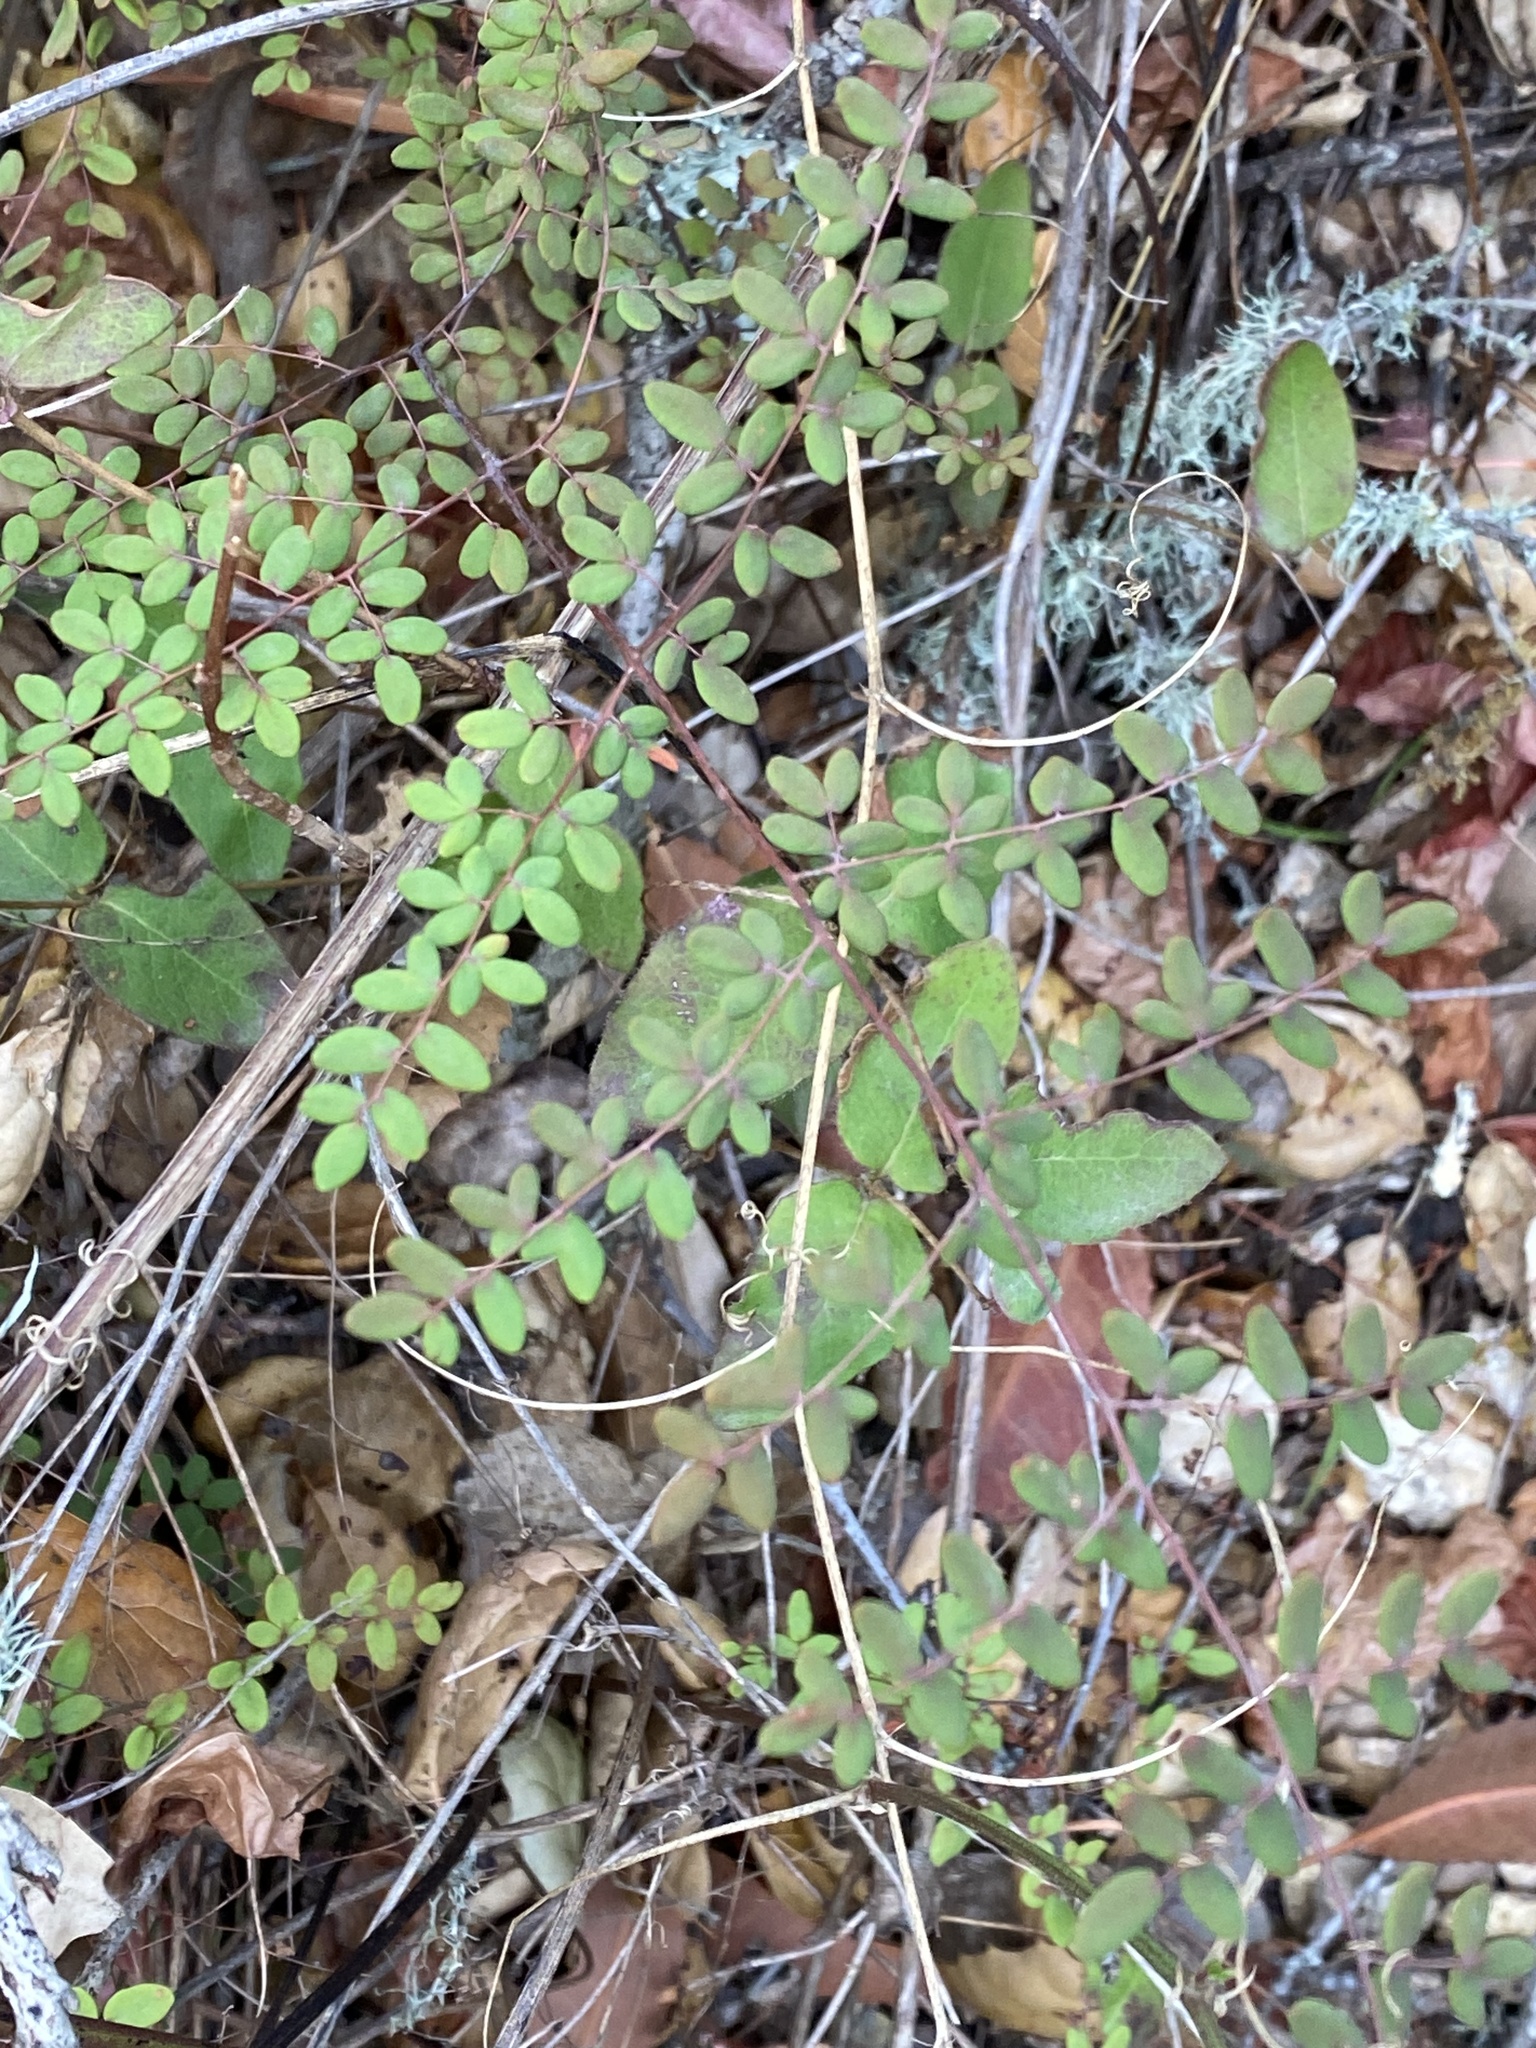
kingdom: Plantae
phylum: Tracheophyta
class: Polypodiopsida
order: Polypodiales
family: Pteridaceae
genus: Pellaea
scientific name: Pellaea andromedifolia
